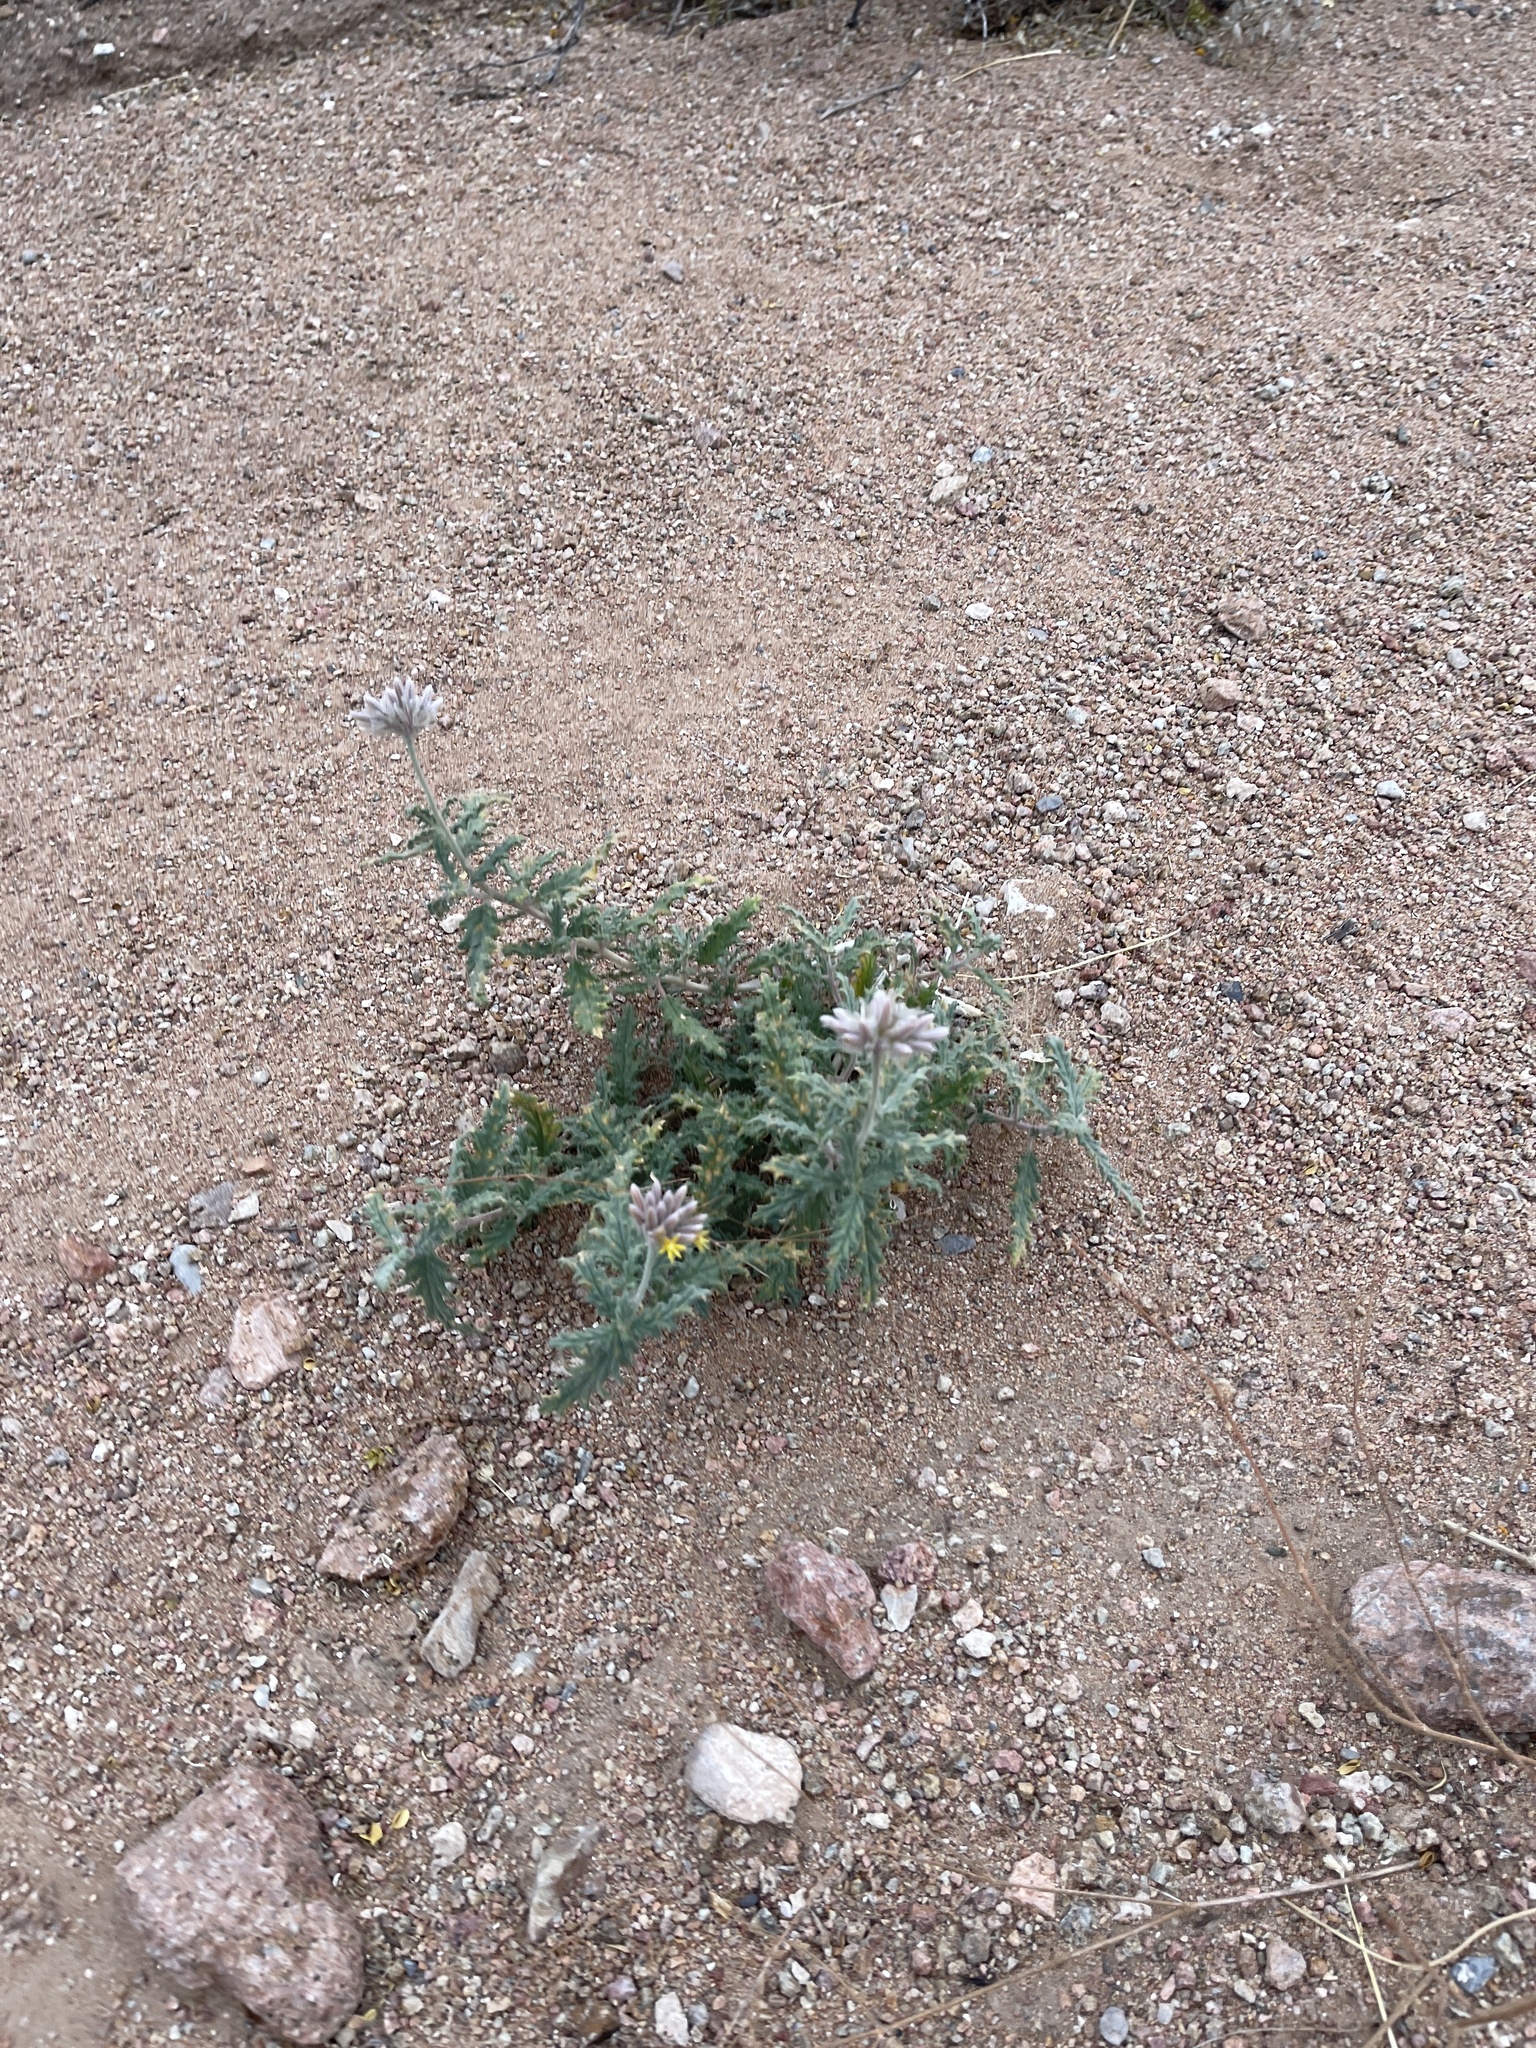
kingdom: Plantae
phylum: Tracheophyta
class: Magnoliopsida
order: Cornales
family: Loasaceae
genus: Cevallia
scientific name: Cevallia sinuata
